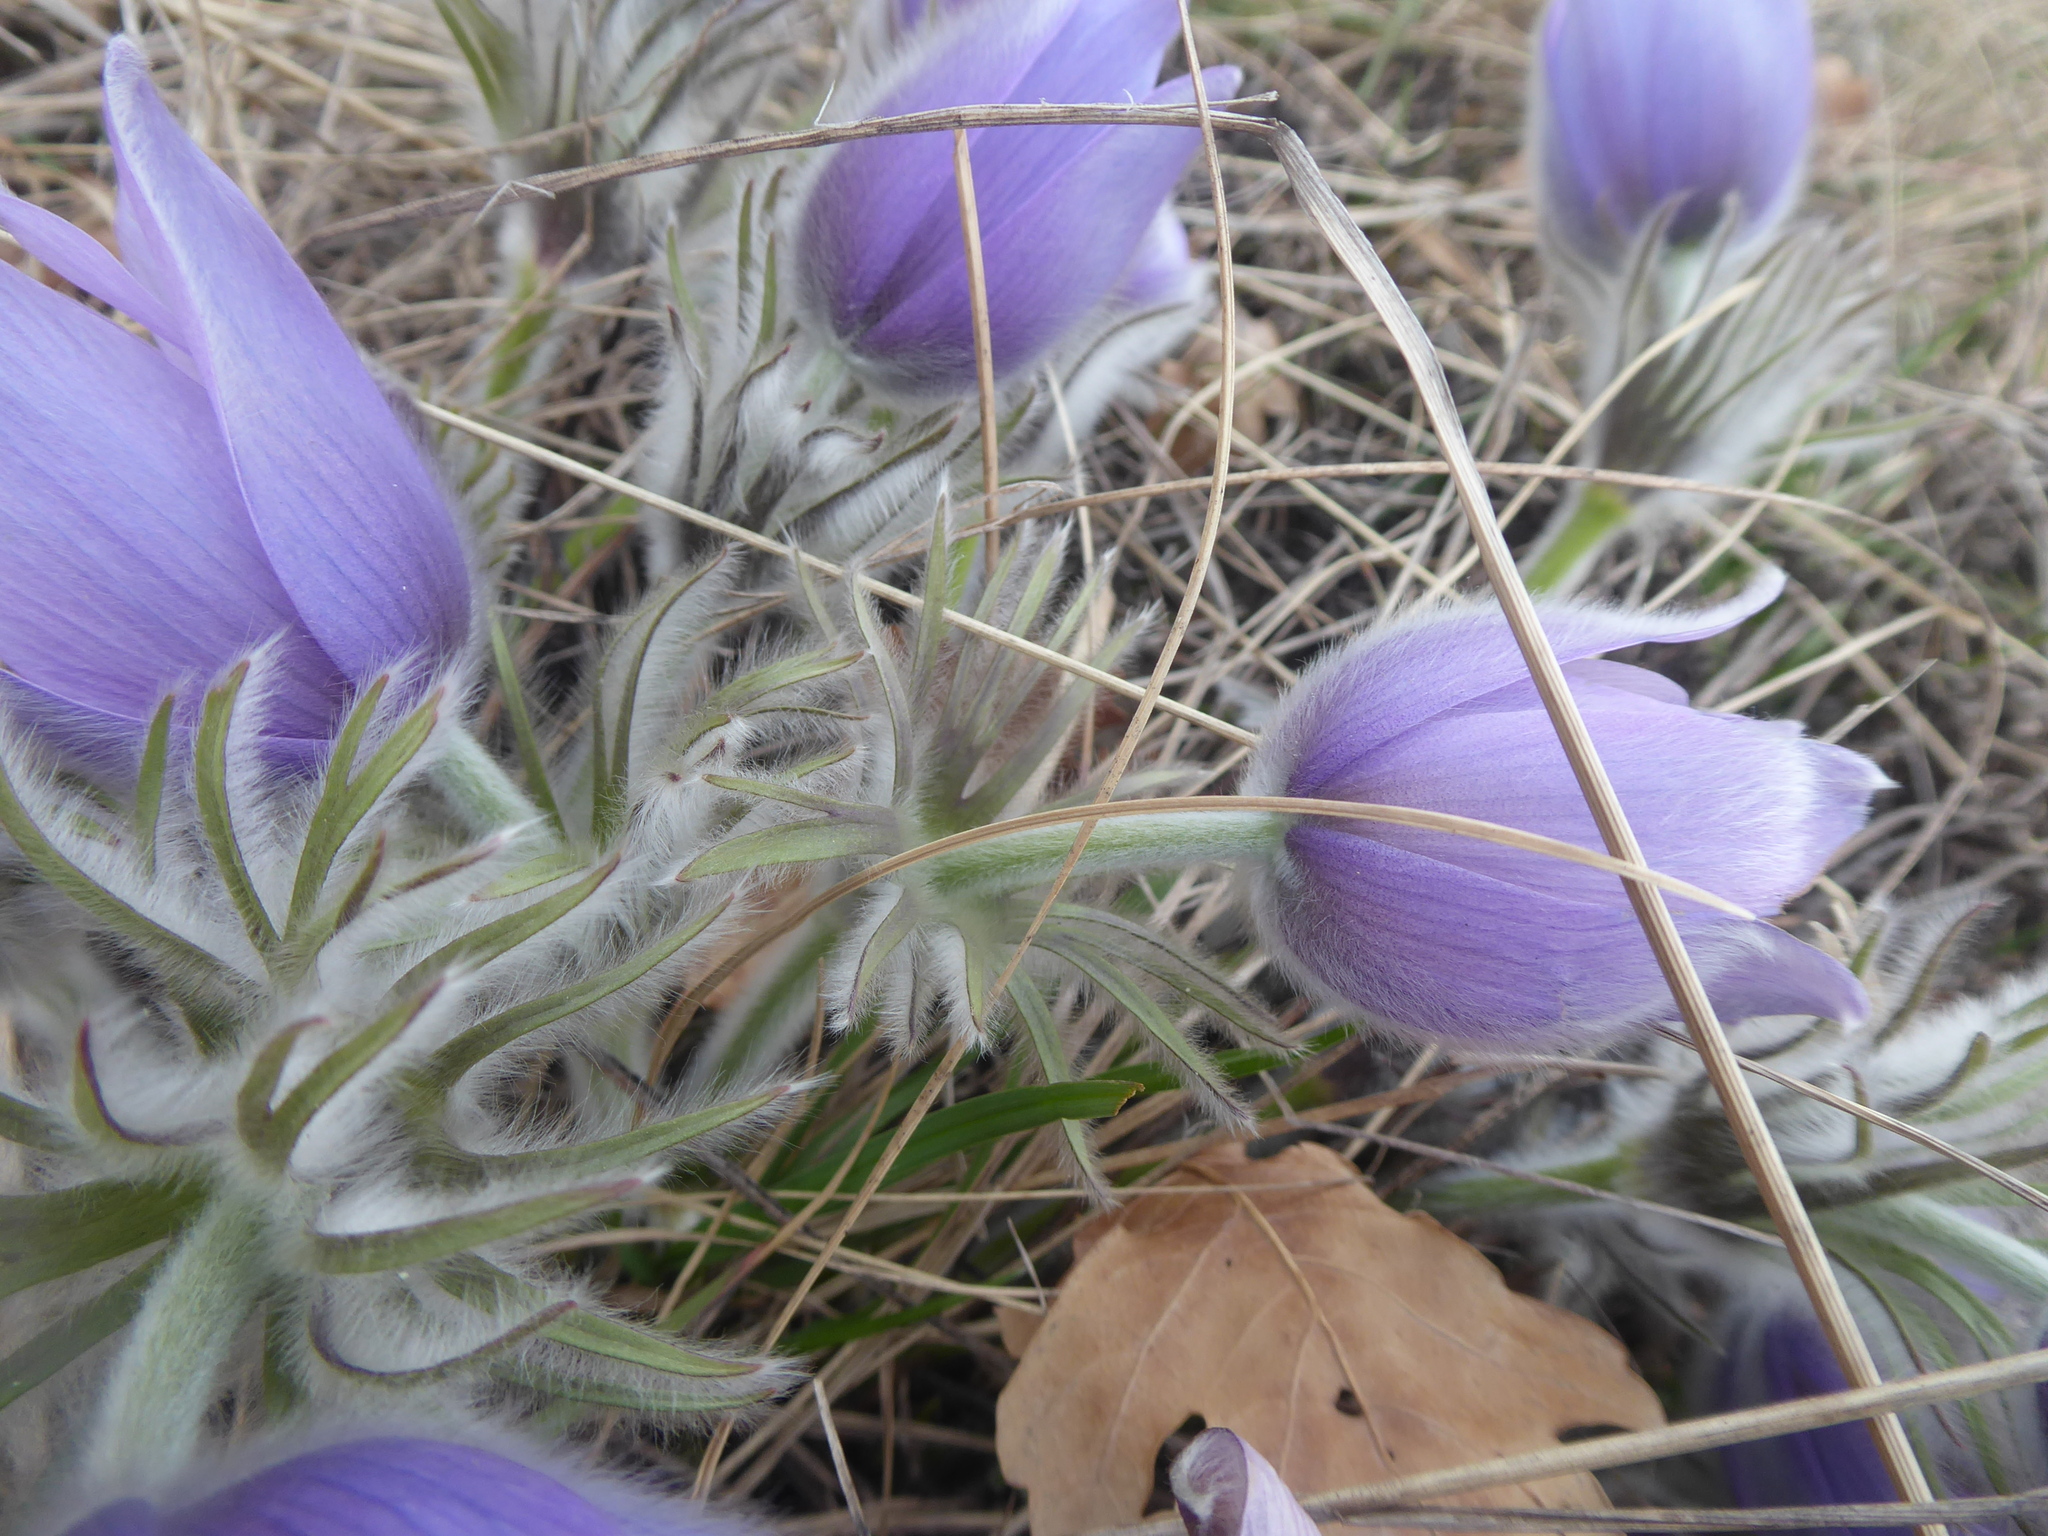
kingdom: Plantae
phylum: Tracheophyta
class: Magnoliopsida
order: Ranunculales
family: Ranunculaceae
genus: Pulsatilla
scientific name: Pulsatilla grandis
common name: Greater pasque flower
